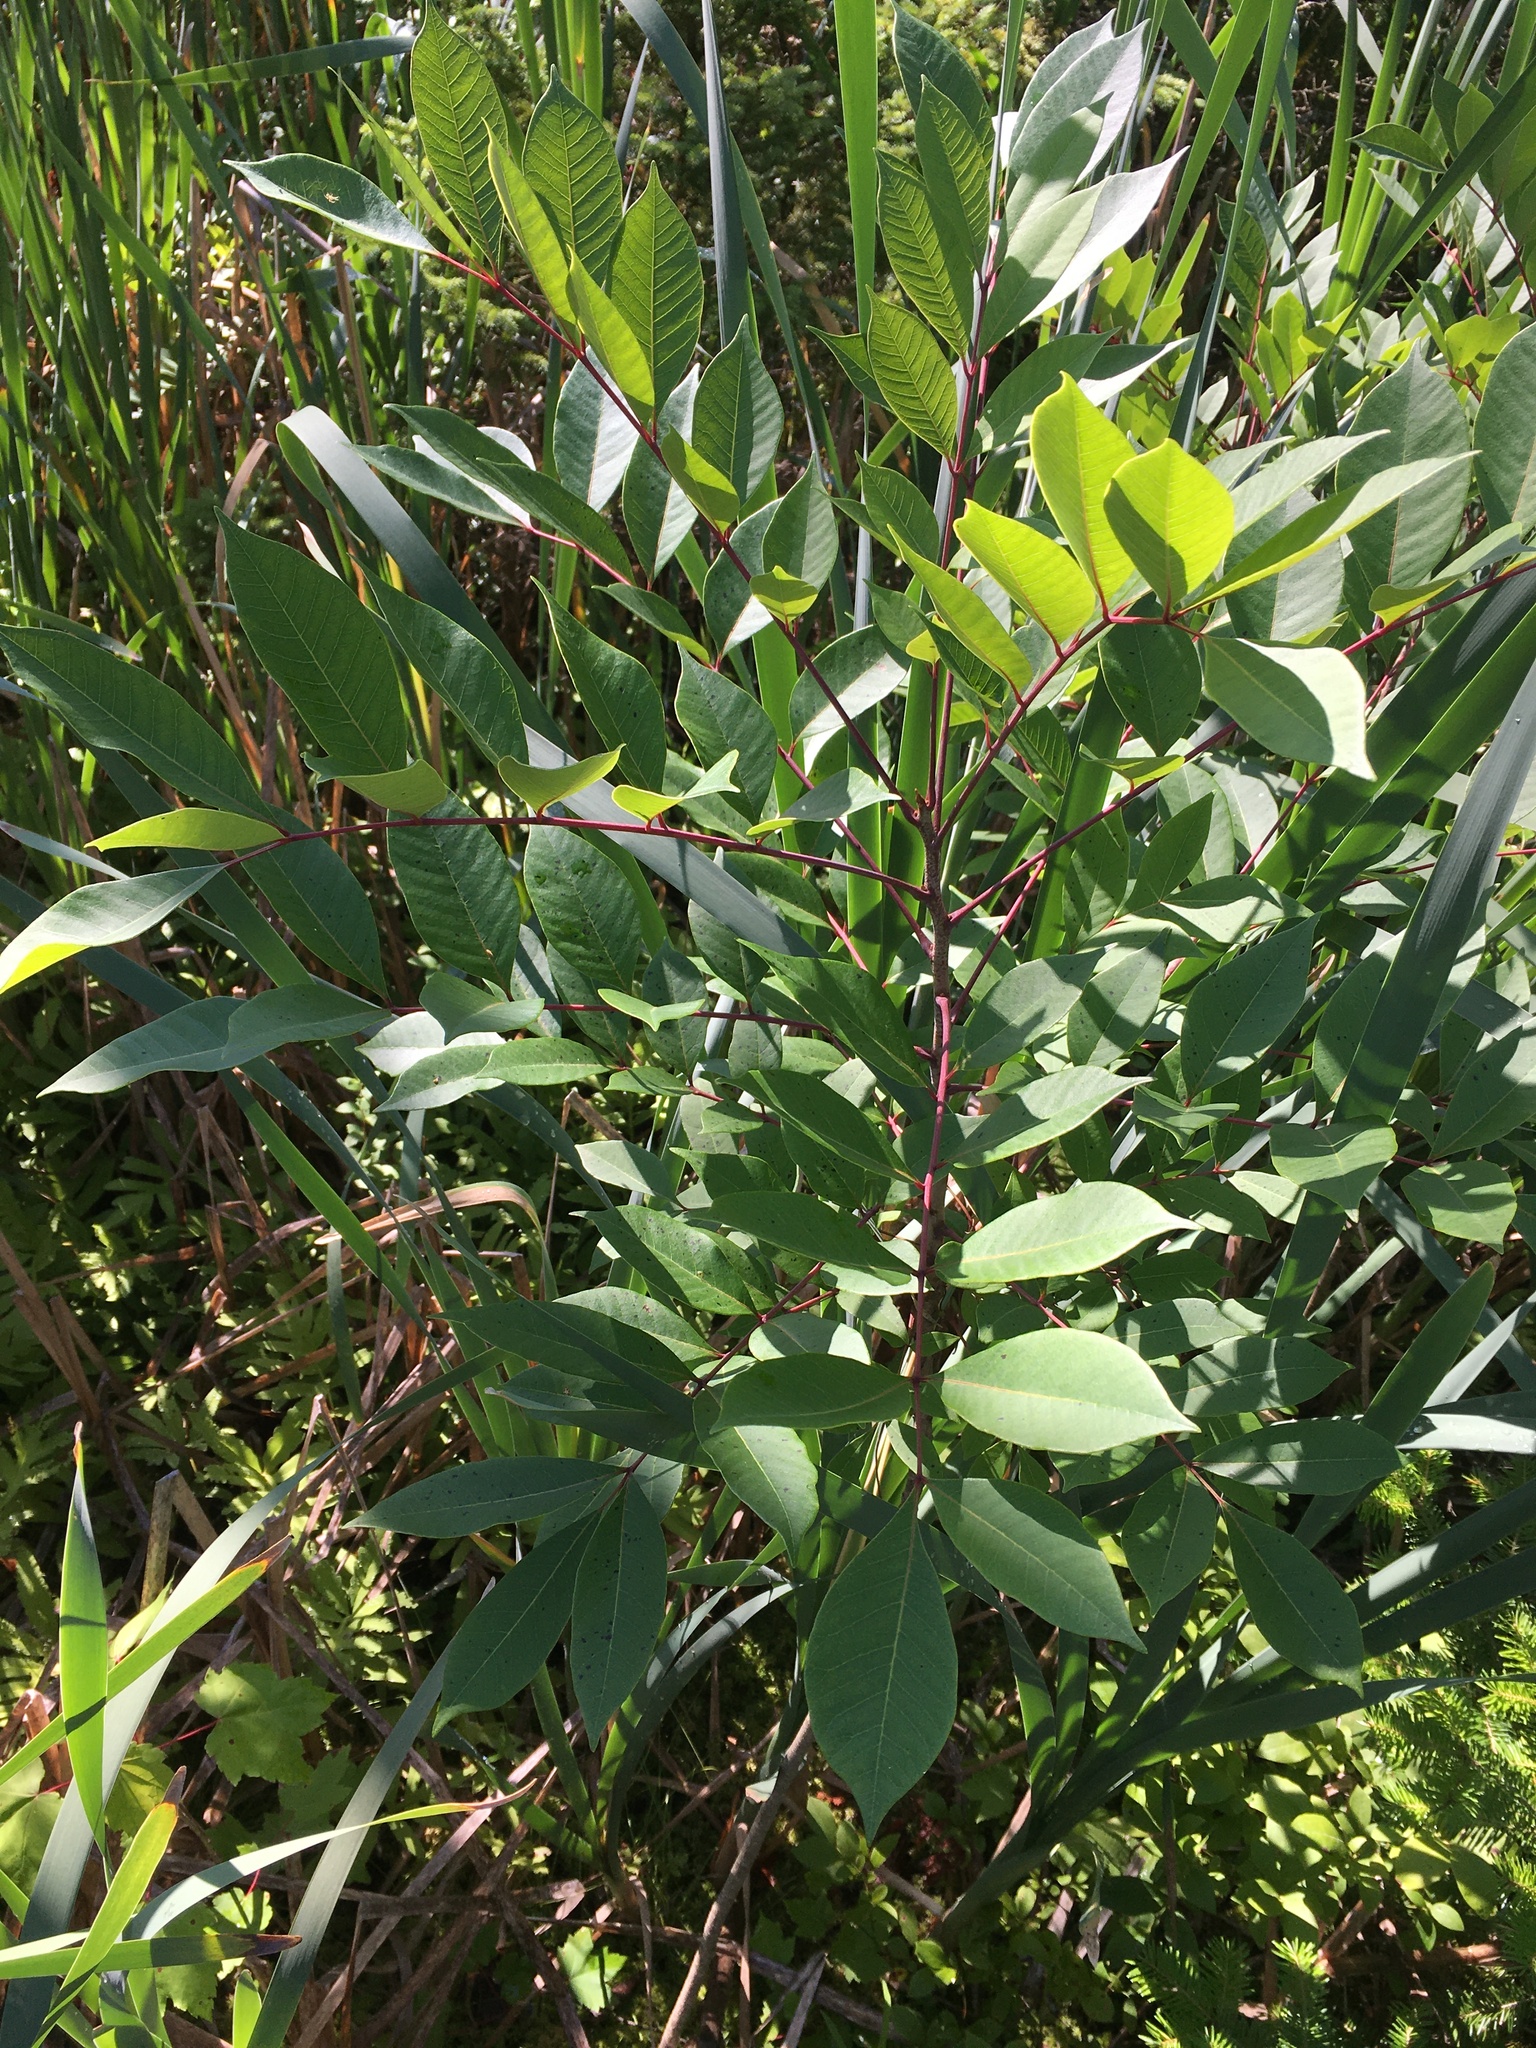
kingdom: Plantae
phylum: Tracheophyta
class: Magnoliopsida
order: Sapindales
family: Anacardiaceae
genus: Toxicodendron
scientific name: Toxicodendron vernix
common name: Poison sumac
